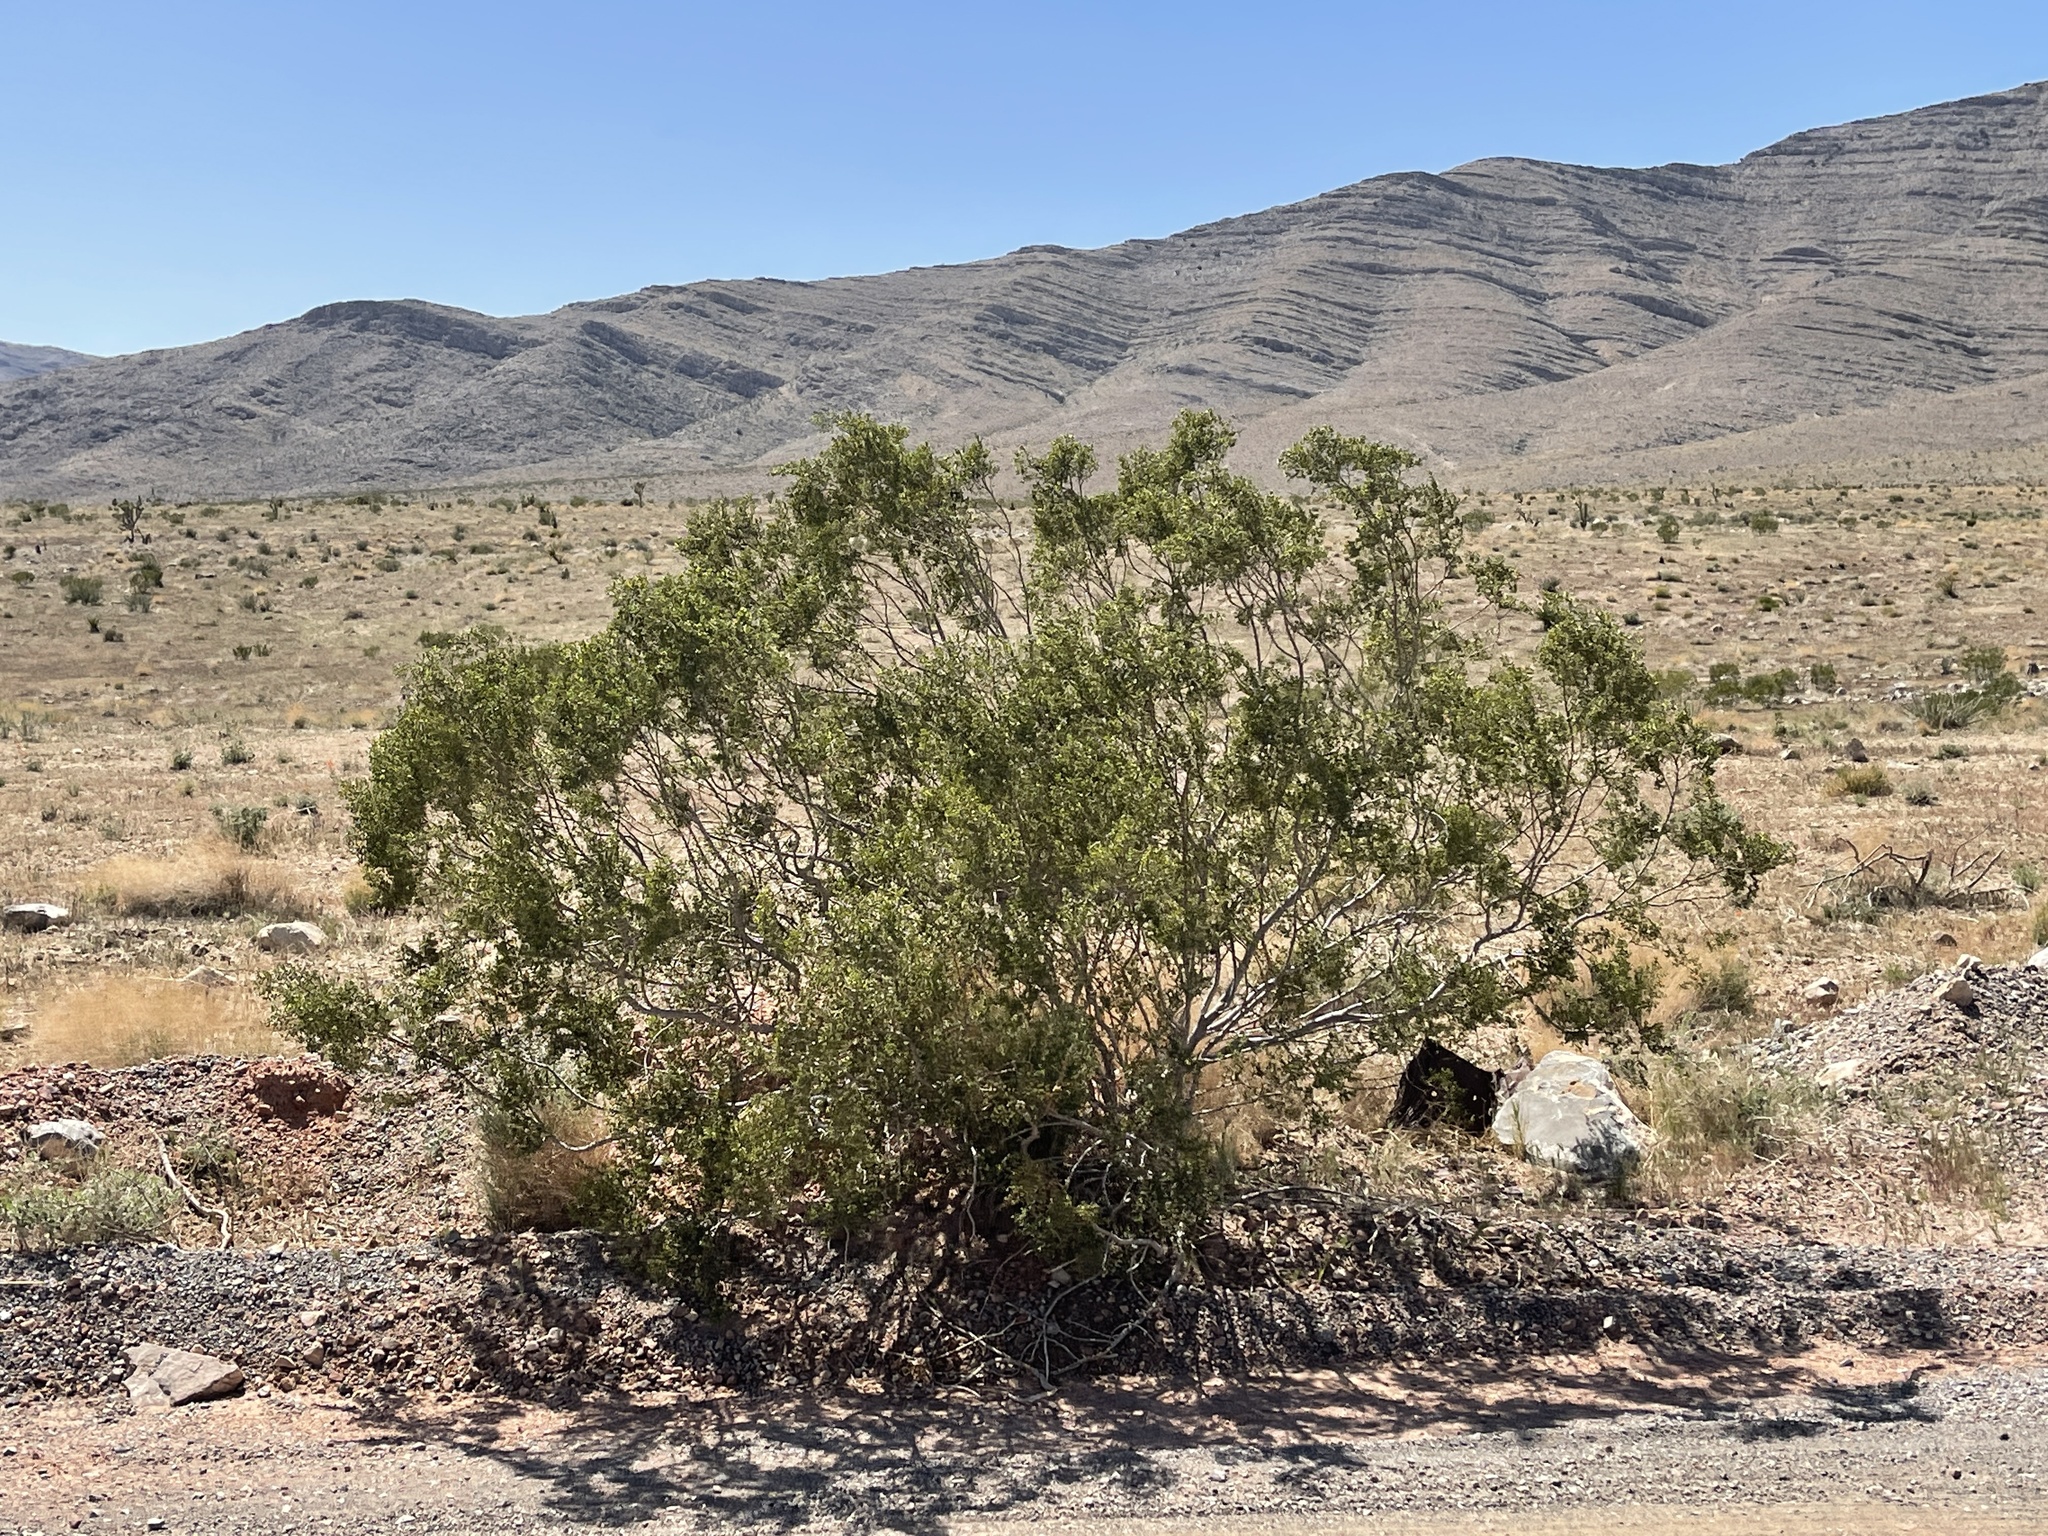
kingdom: Plantae
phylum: Tracheophyta
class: Magnoliopsida
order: Zygophyllales
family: Zygophyllaceae
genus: Larrea
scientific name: Larrea tridentata
